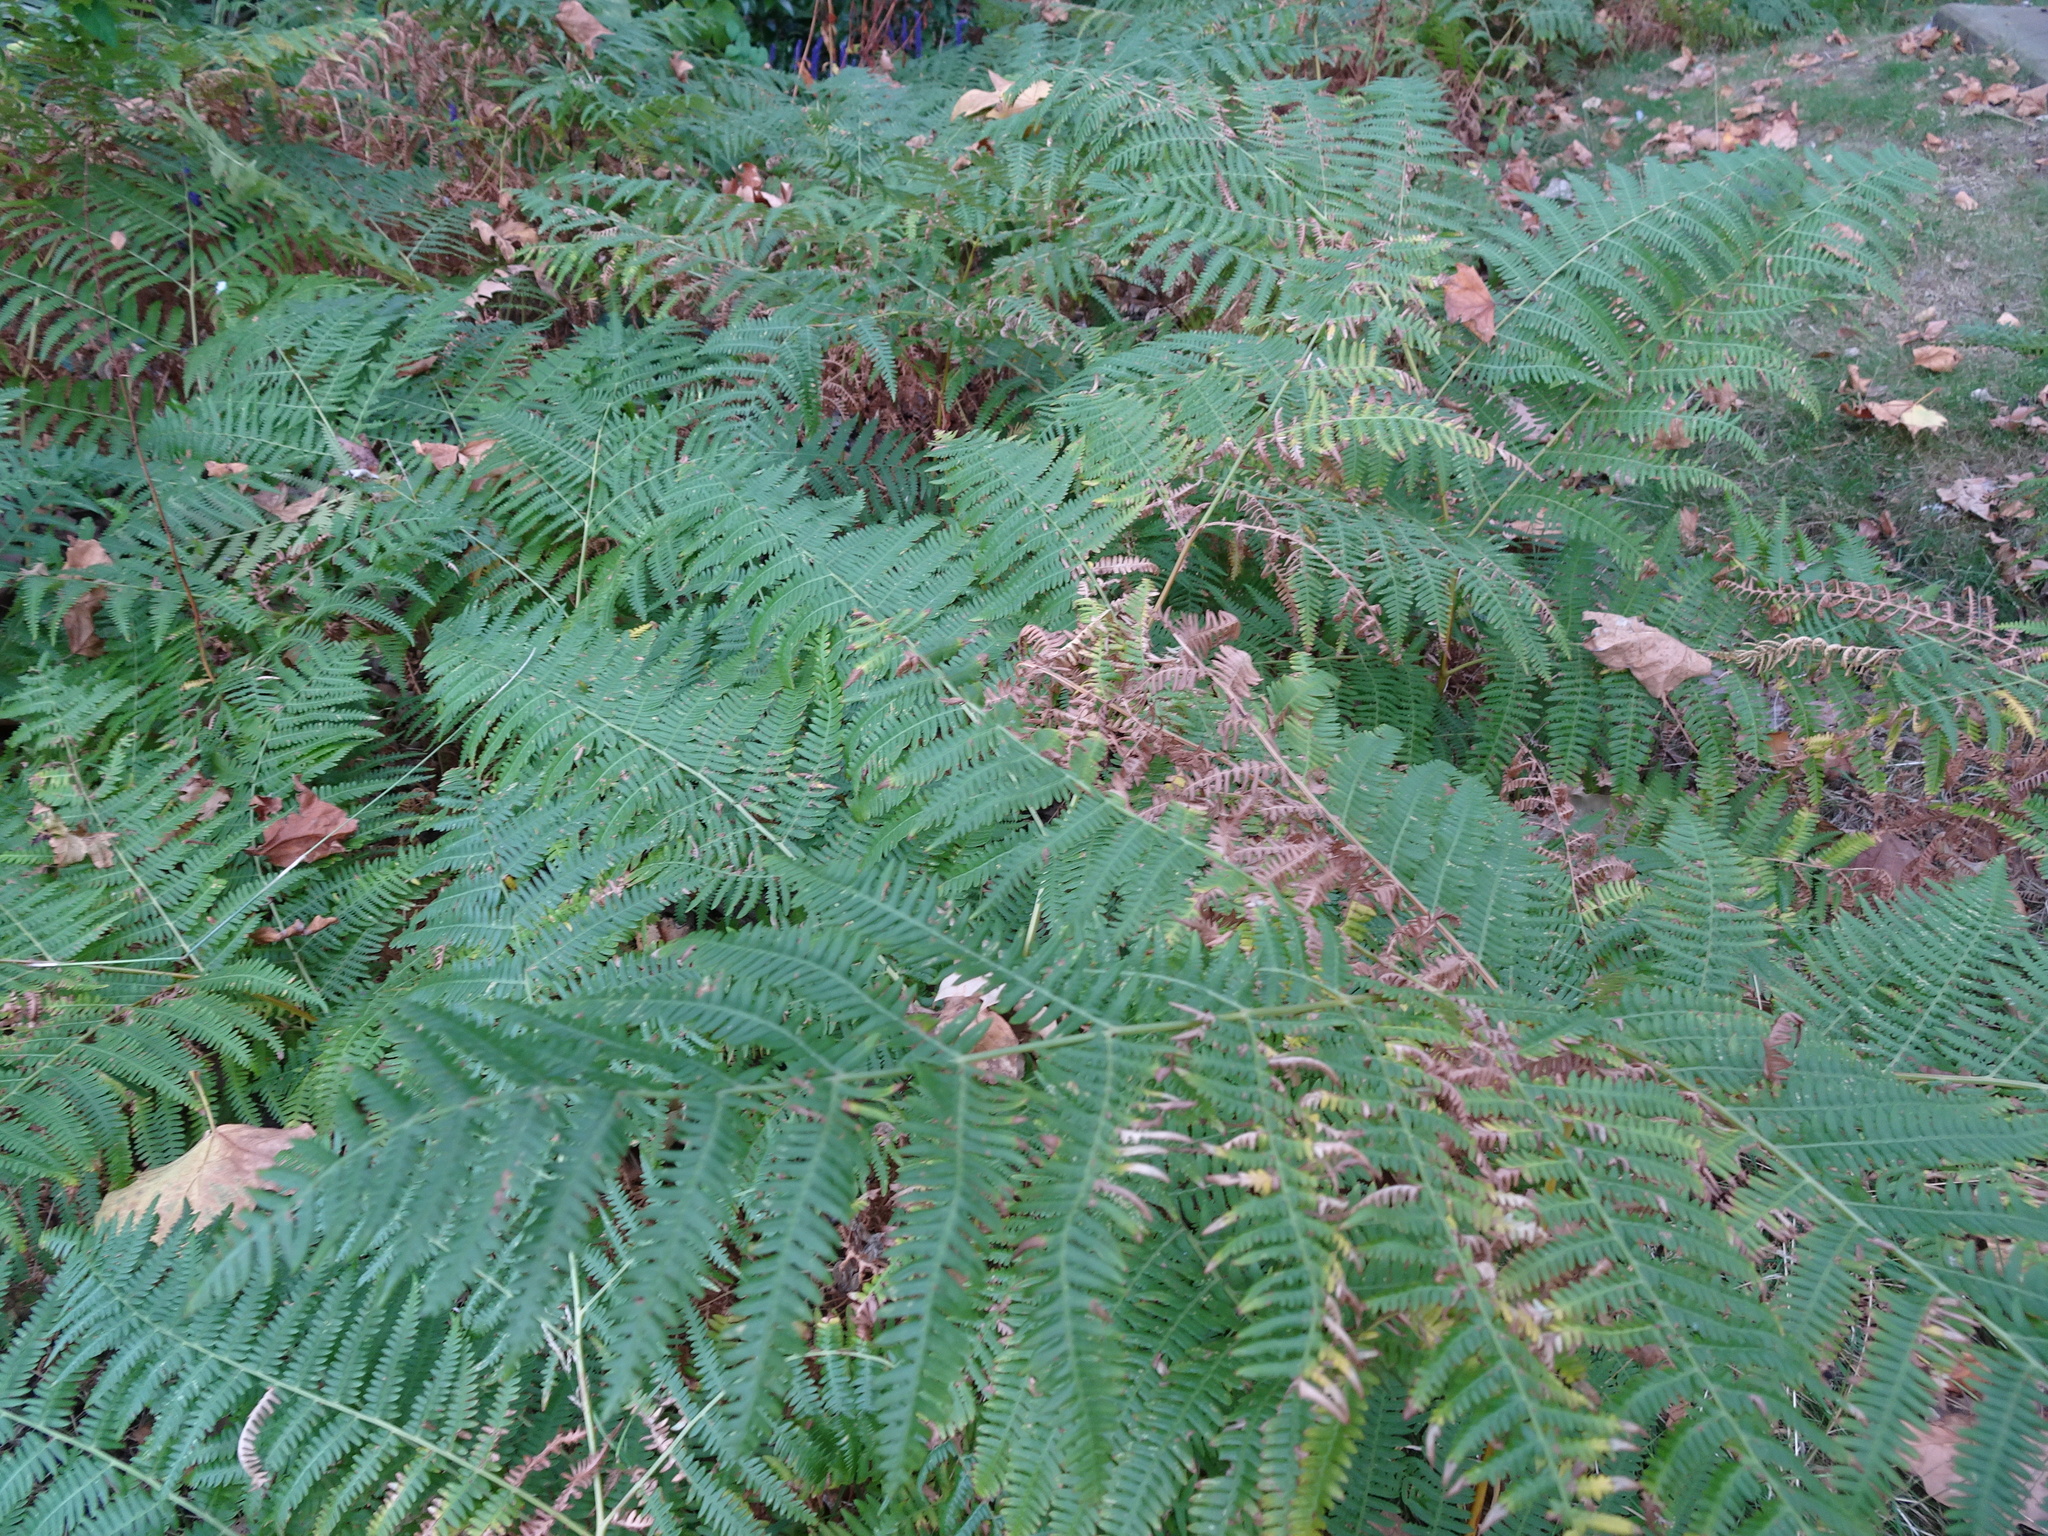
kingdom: Plantae
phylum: Tracheophyta
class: Polypodiopsida
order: Polypodiales
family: Dennstaedtiaceae
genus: Pteridium
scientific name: Pteridium aquilinum
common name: Bracken
